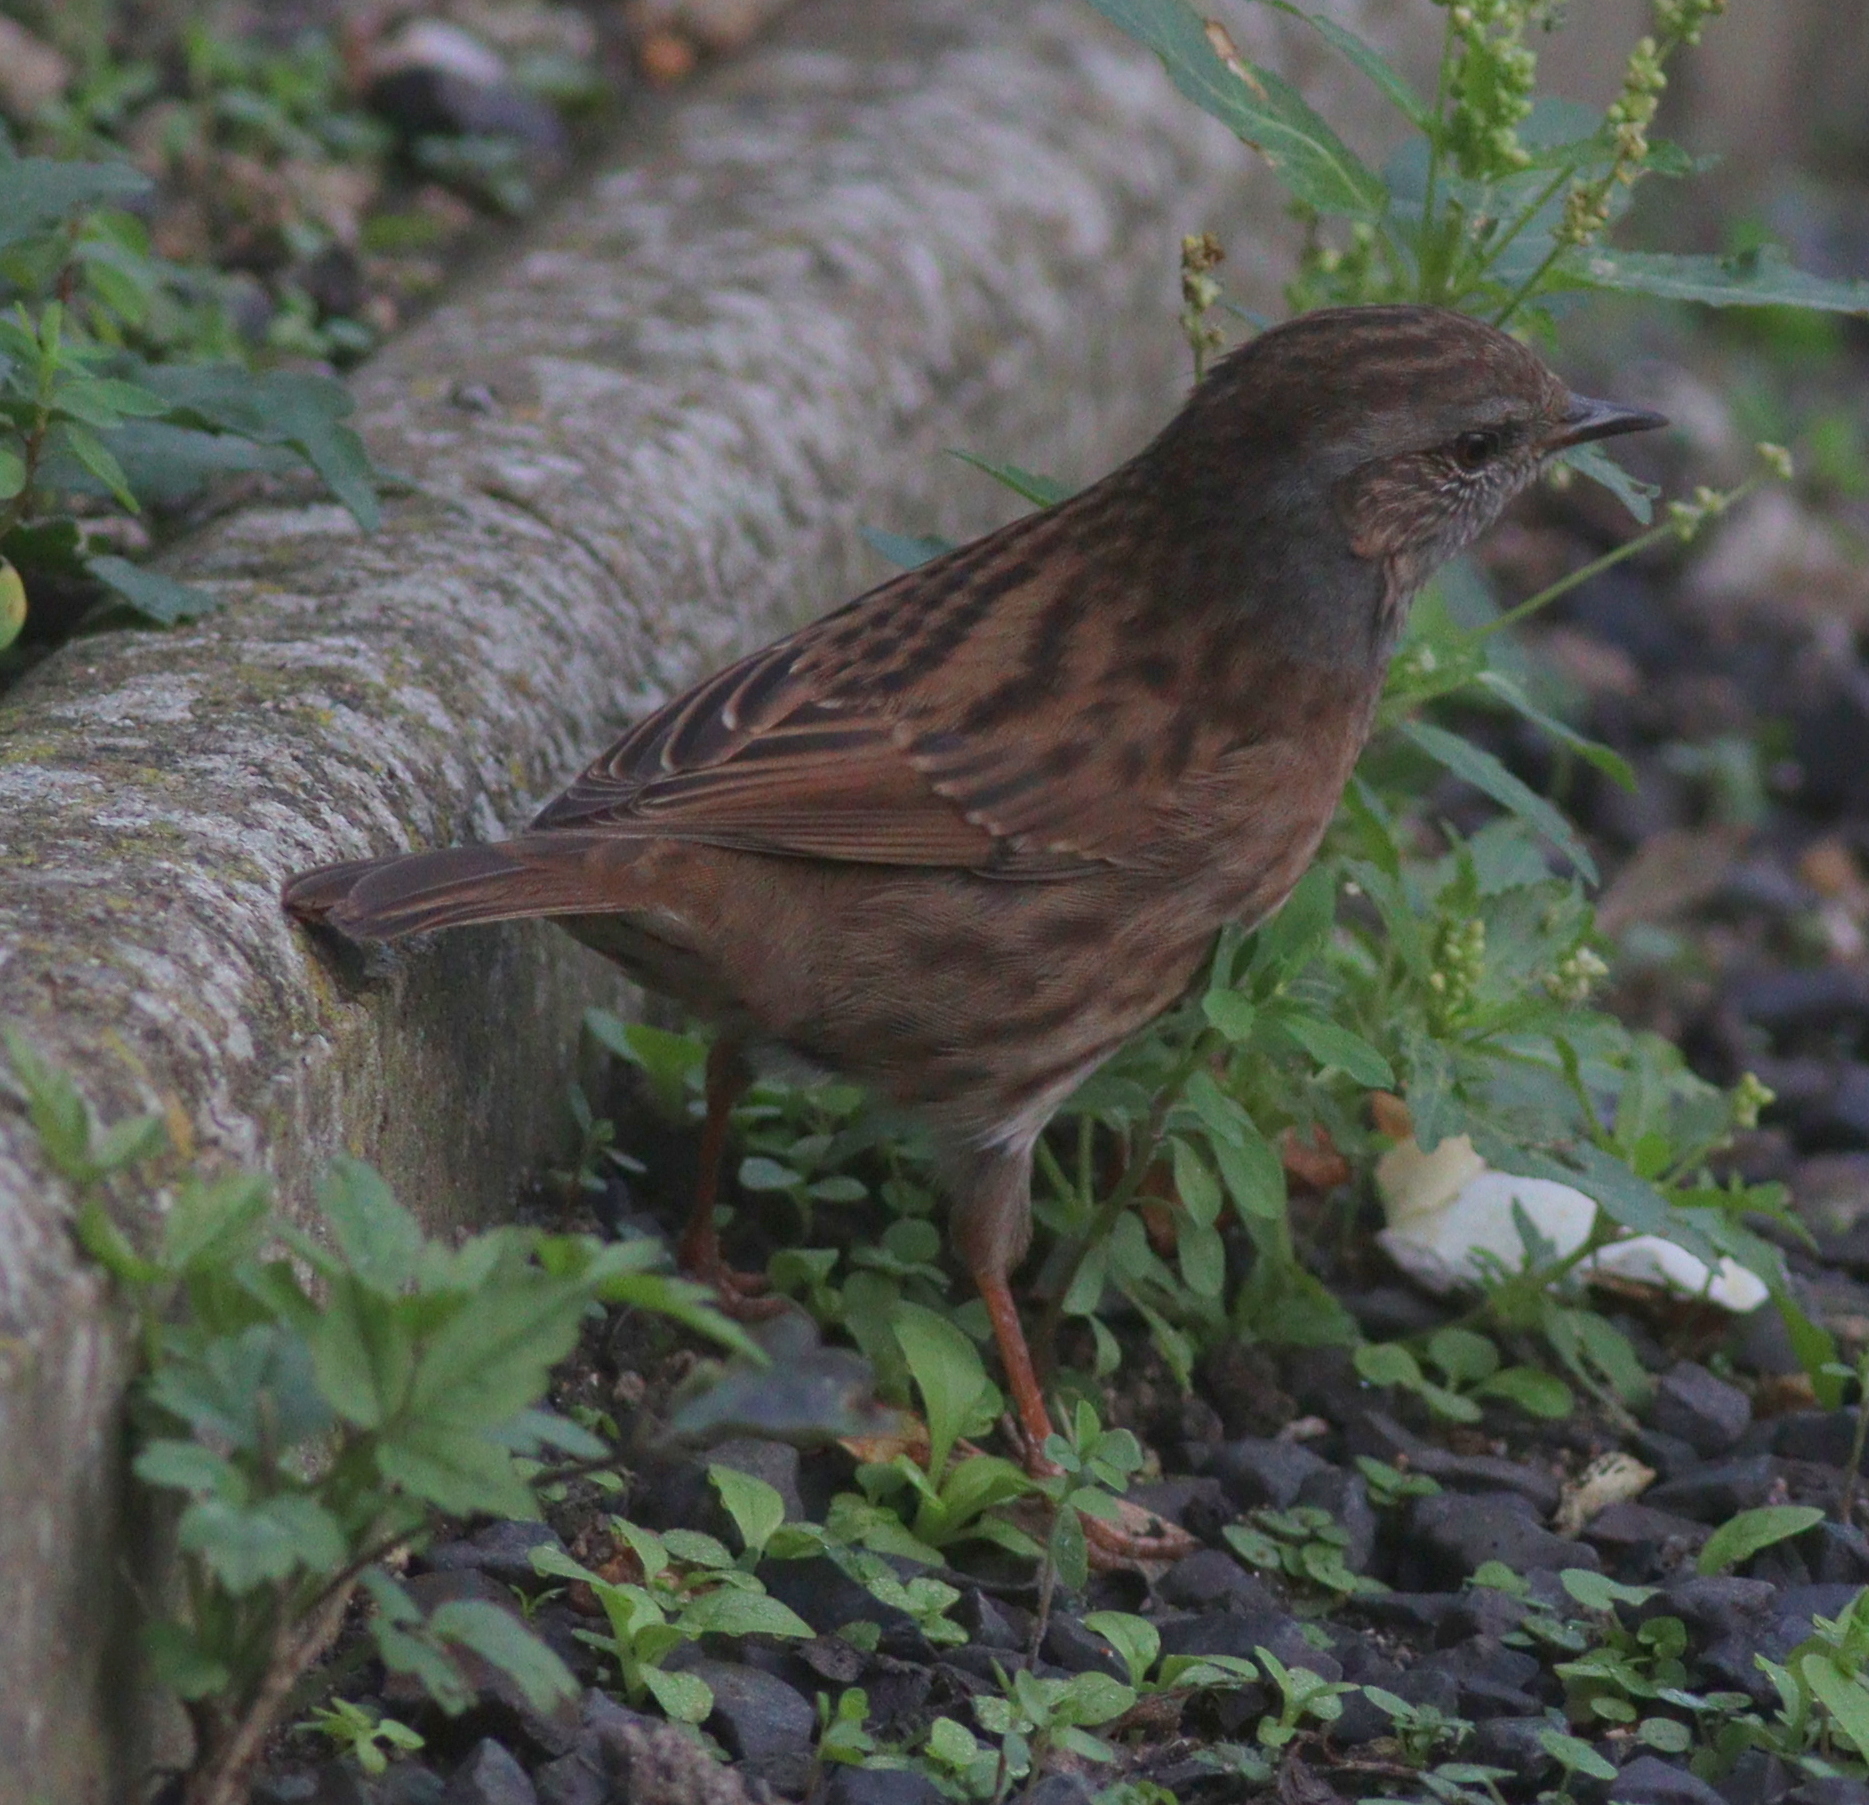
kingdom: Animalia
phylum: Chordata
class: Aves
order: Passeriformes
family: Prunellidae
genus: Prunella
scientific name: Prunella modularis
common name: Dunnock
